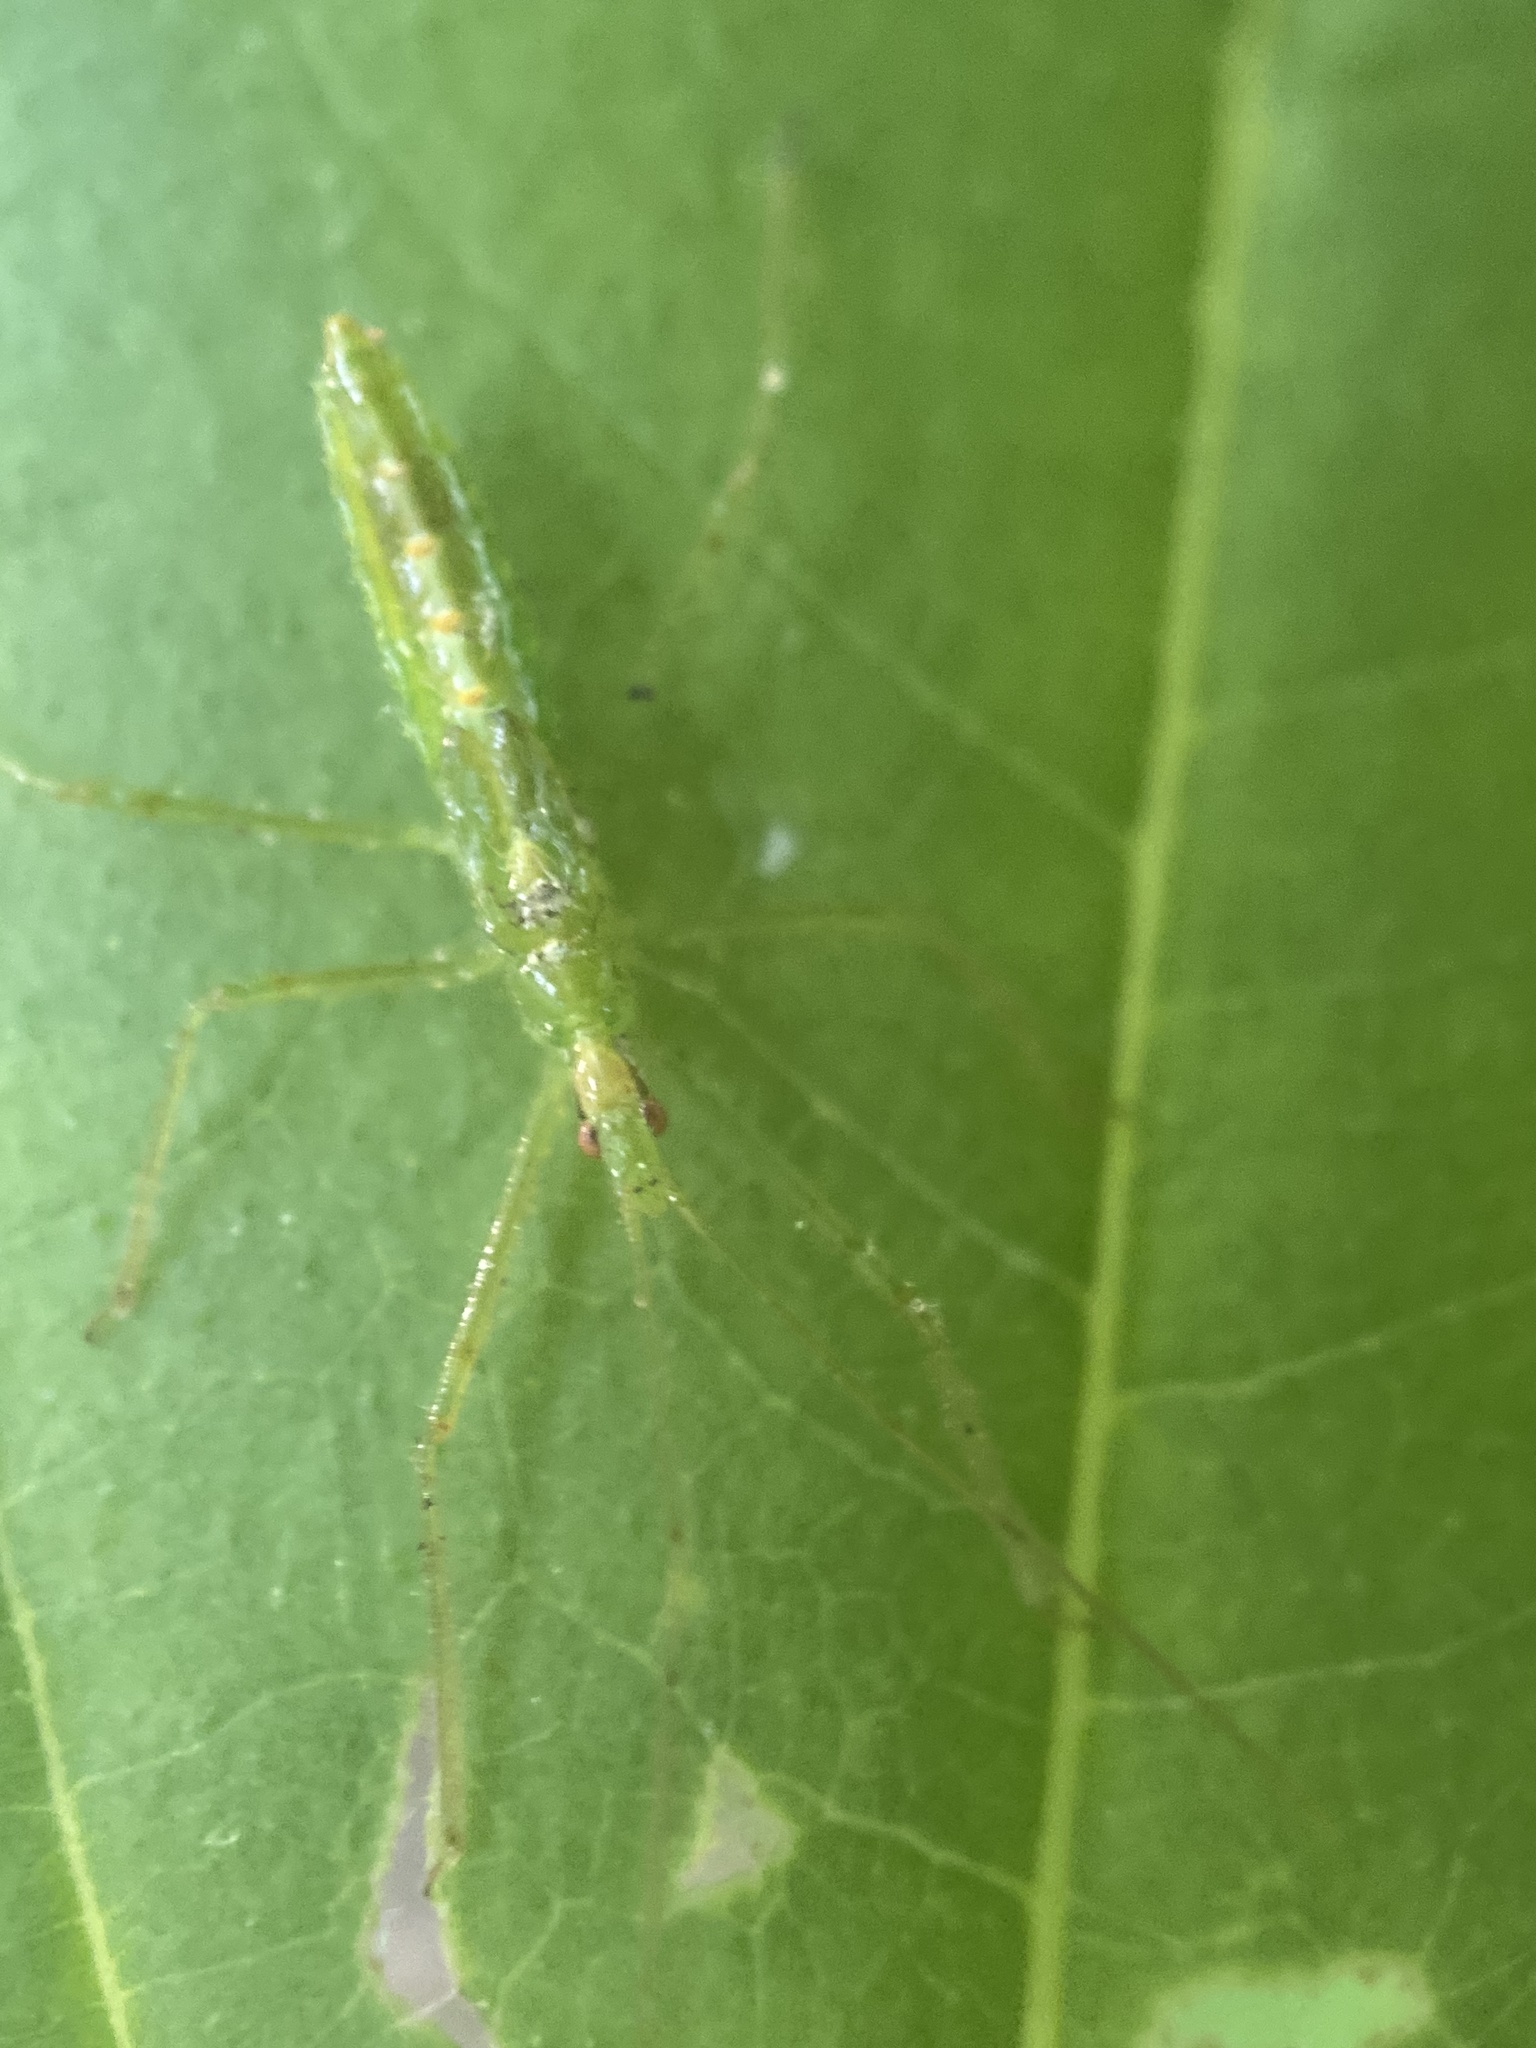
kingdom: Animalia
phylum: Arthropoda
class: Insecta
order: Hemiptera
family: Reduviidae
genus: Zelus
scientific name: Zelus luridus
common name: Pale green assassin bug
